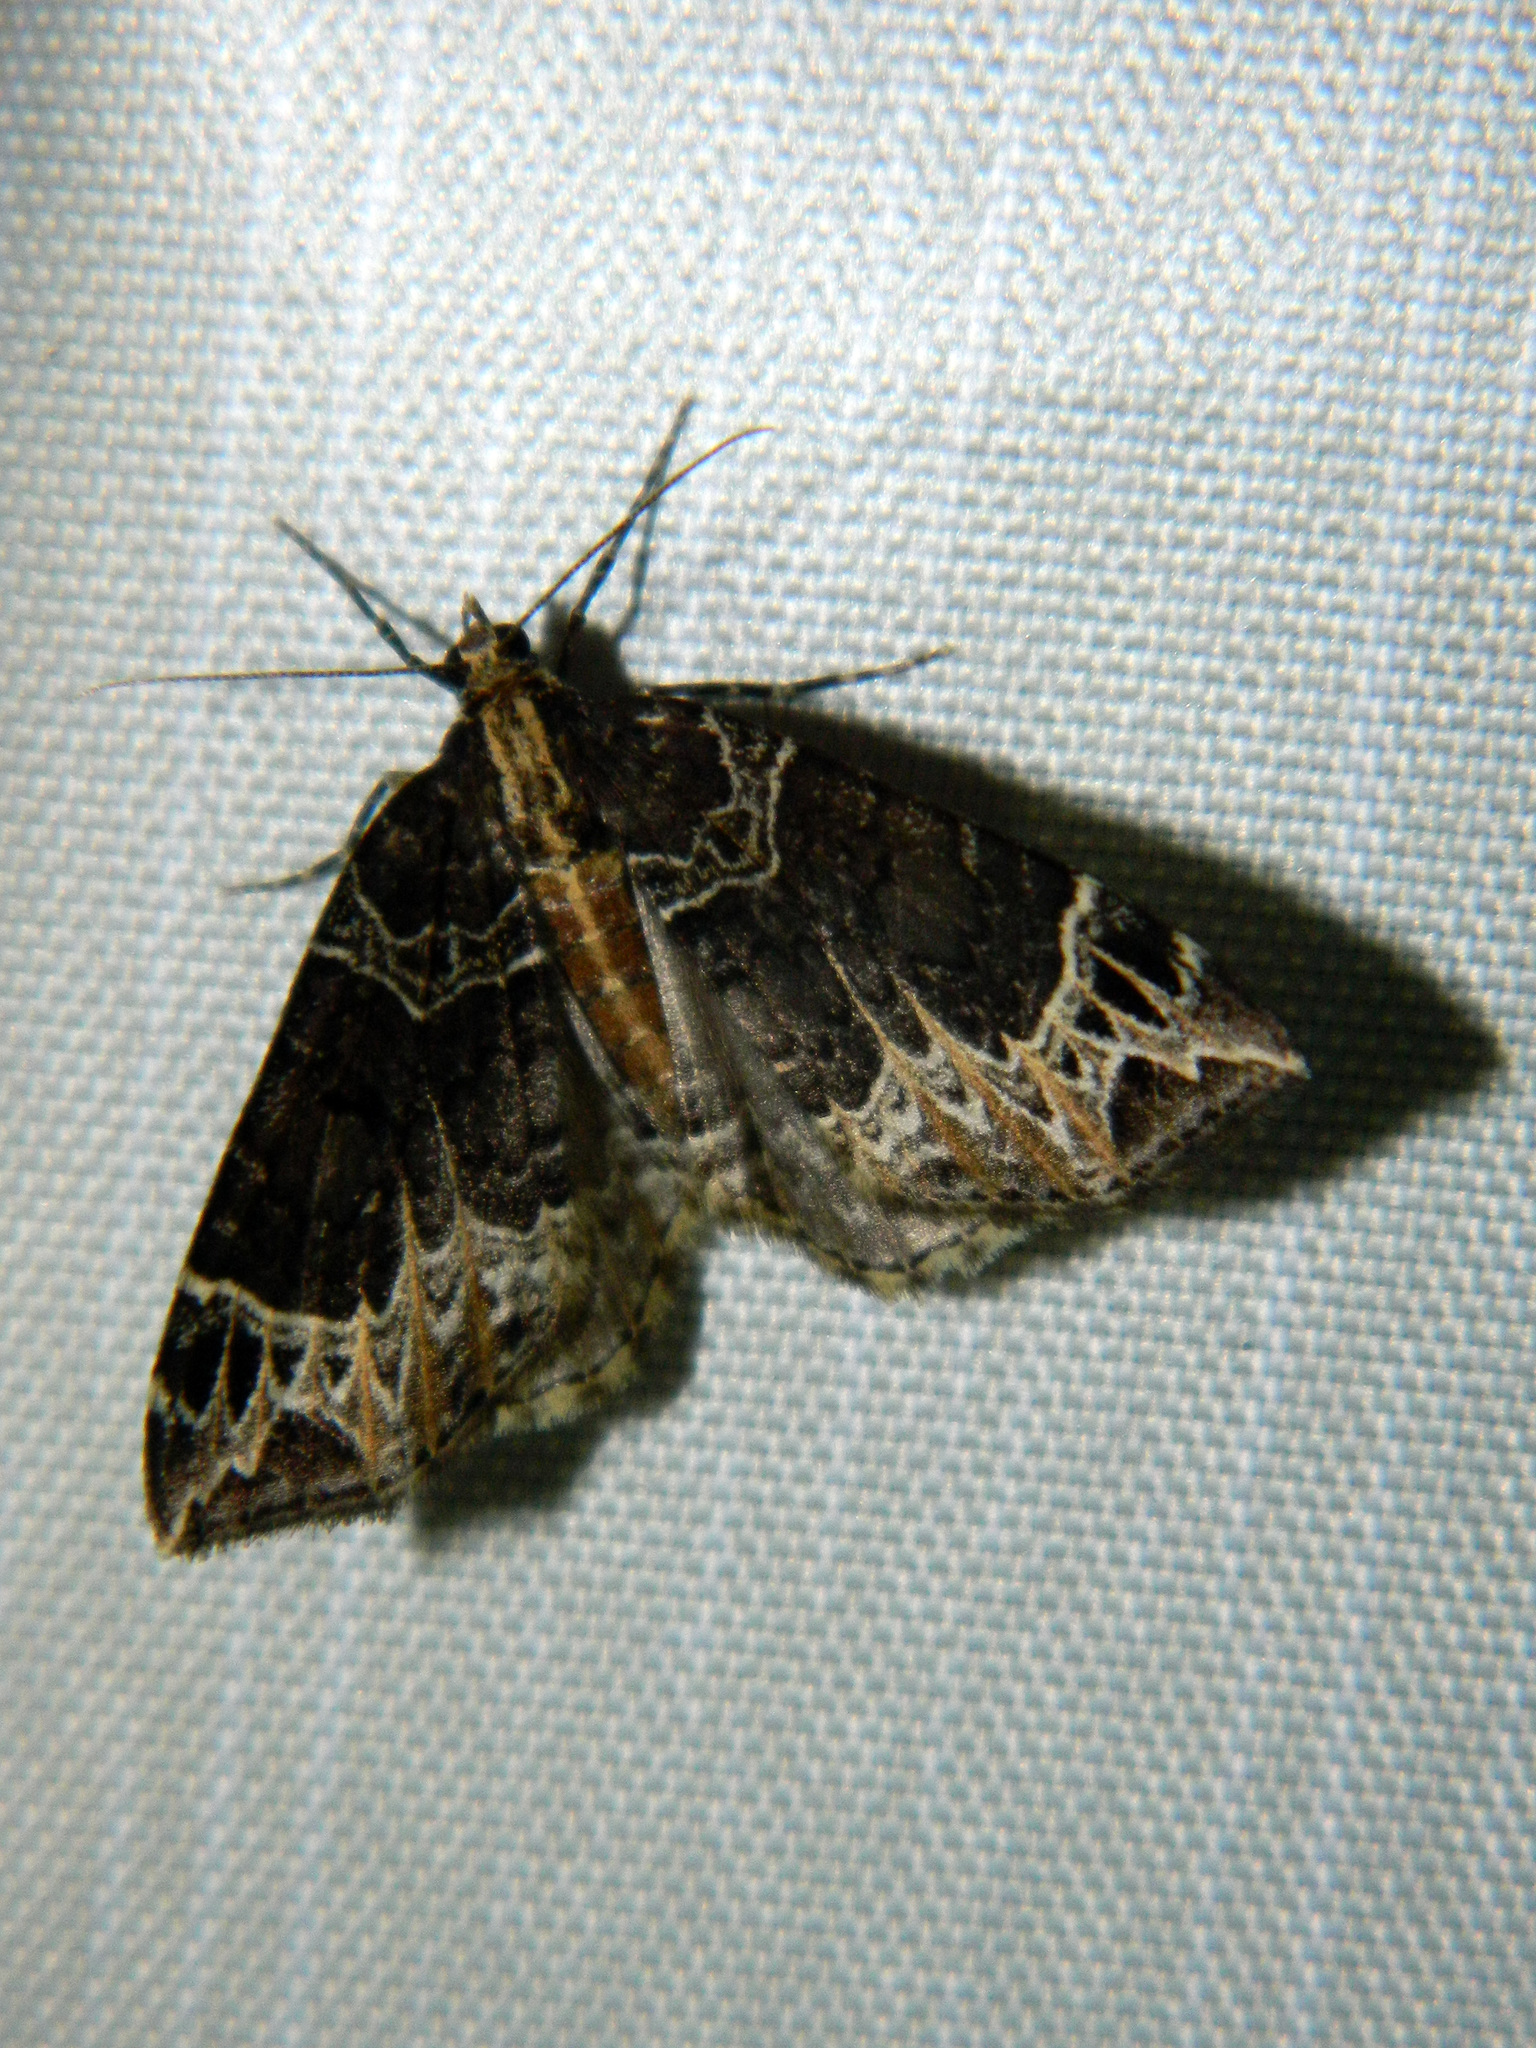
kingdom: Animalia
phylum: Arthropoda
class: Insecta
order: Lepidoptera
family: Geometridae
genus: Ecliptopera
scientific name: Ecliptopera silaceata
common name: Small phoenix
